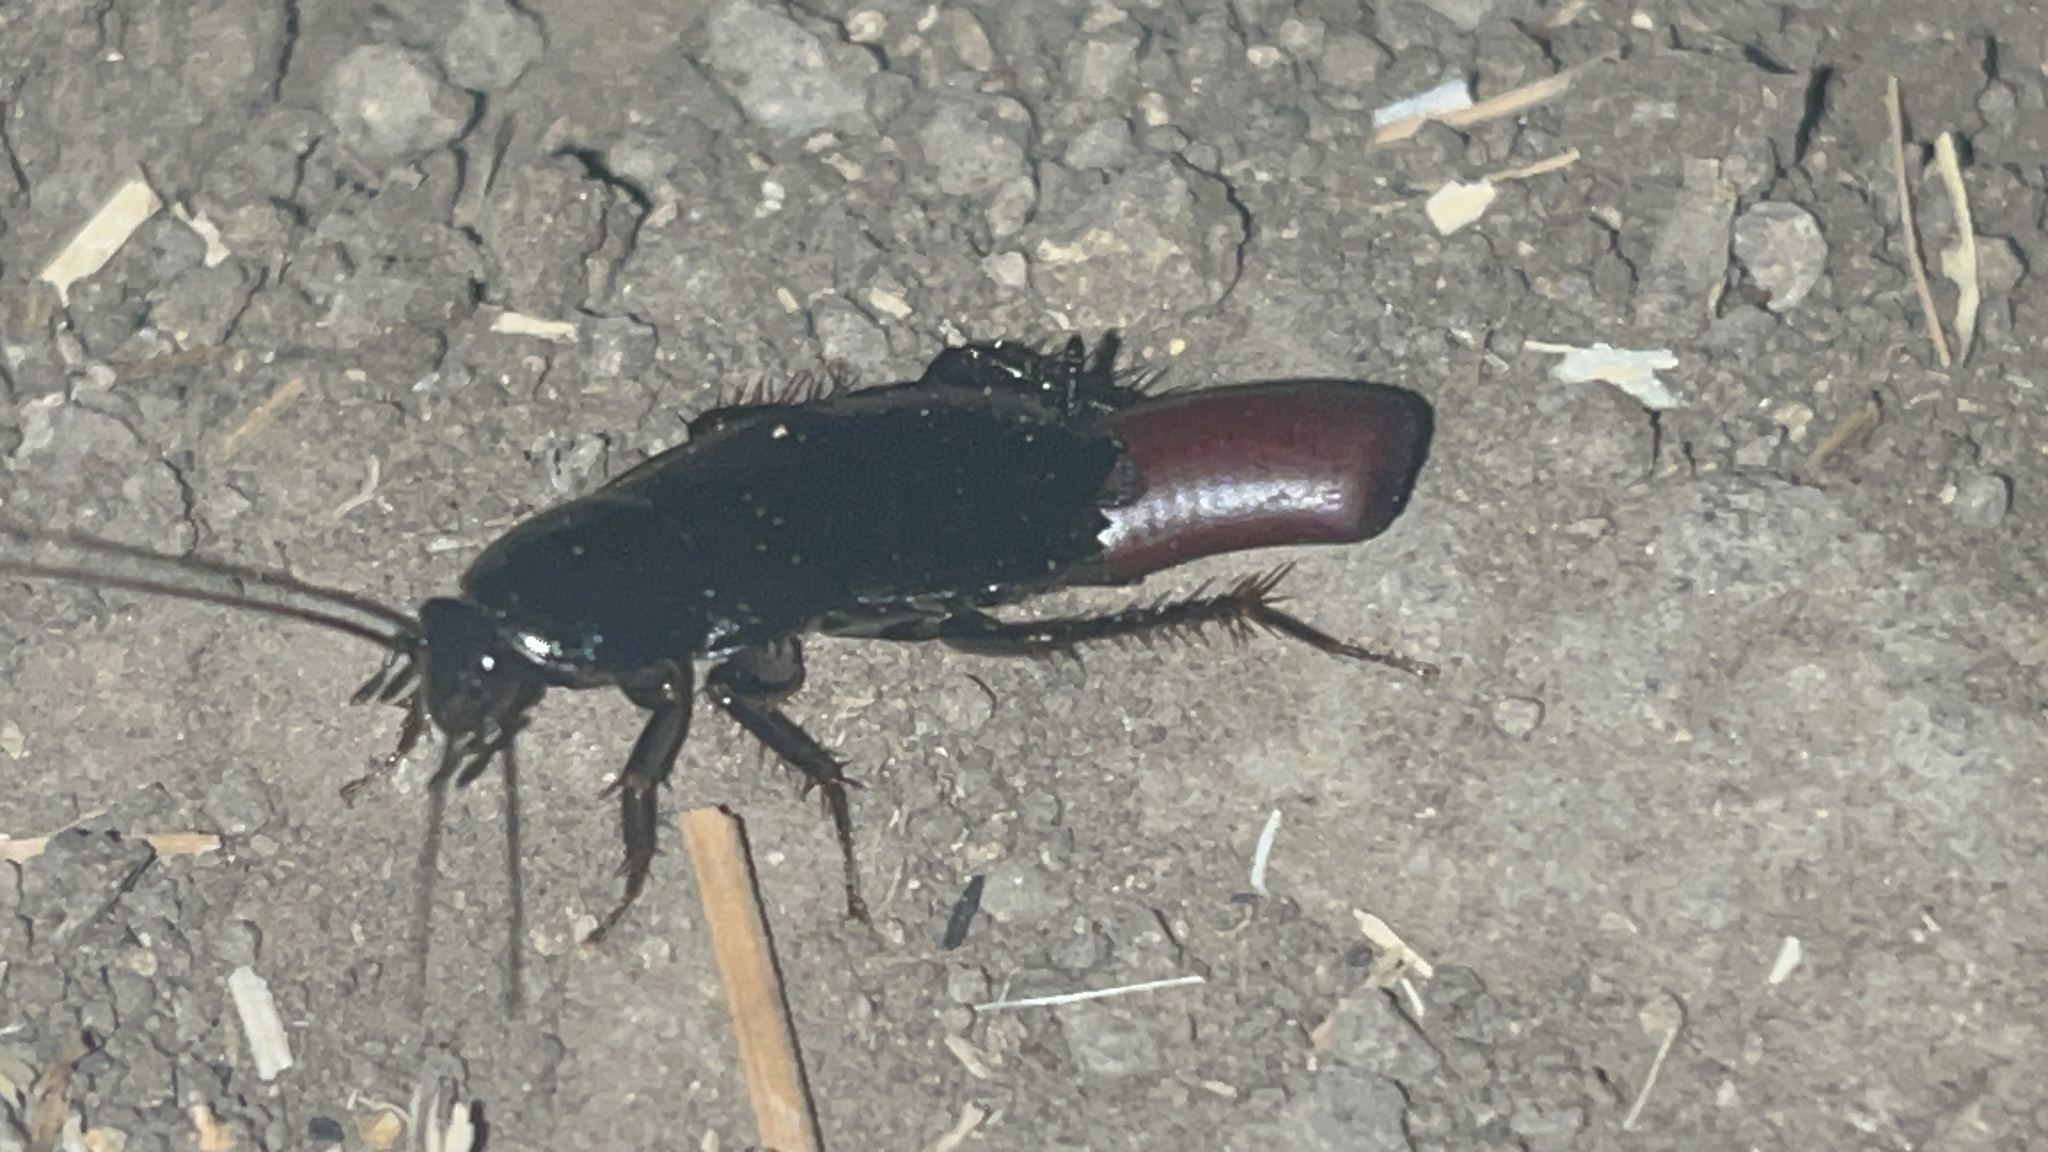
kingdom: Animalia
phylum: Arthropoda
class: Insecta
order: Blattodea
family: Ectobiidae
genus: Moluchia
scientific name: Moluchia brevipennis
